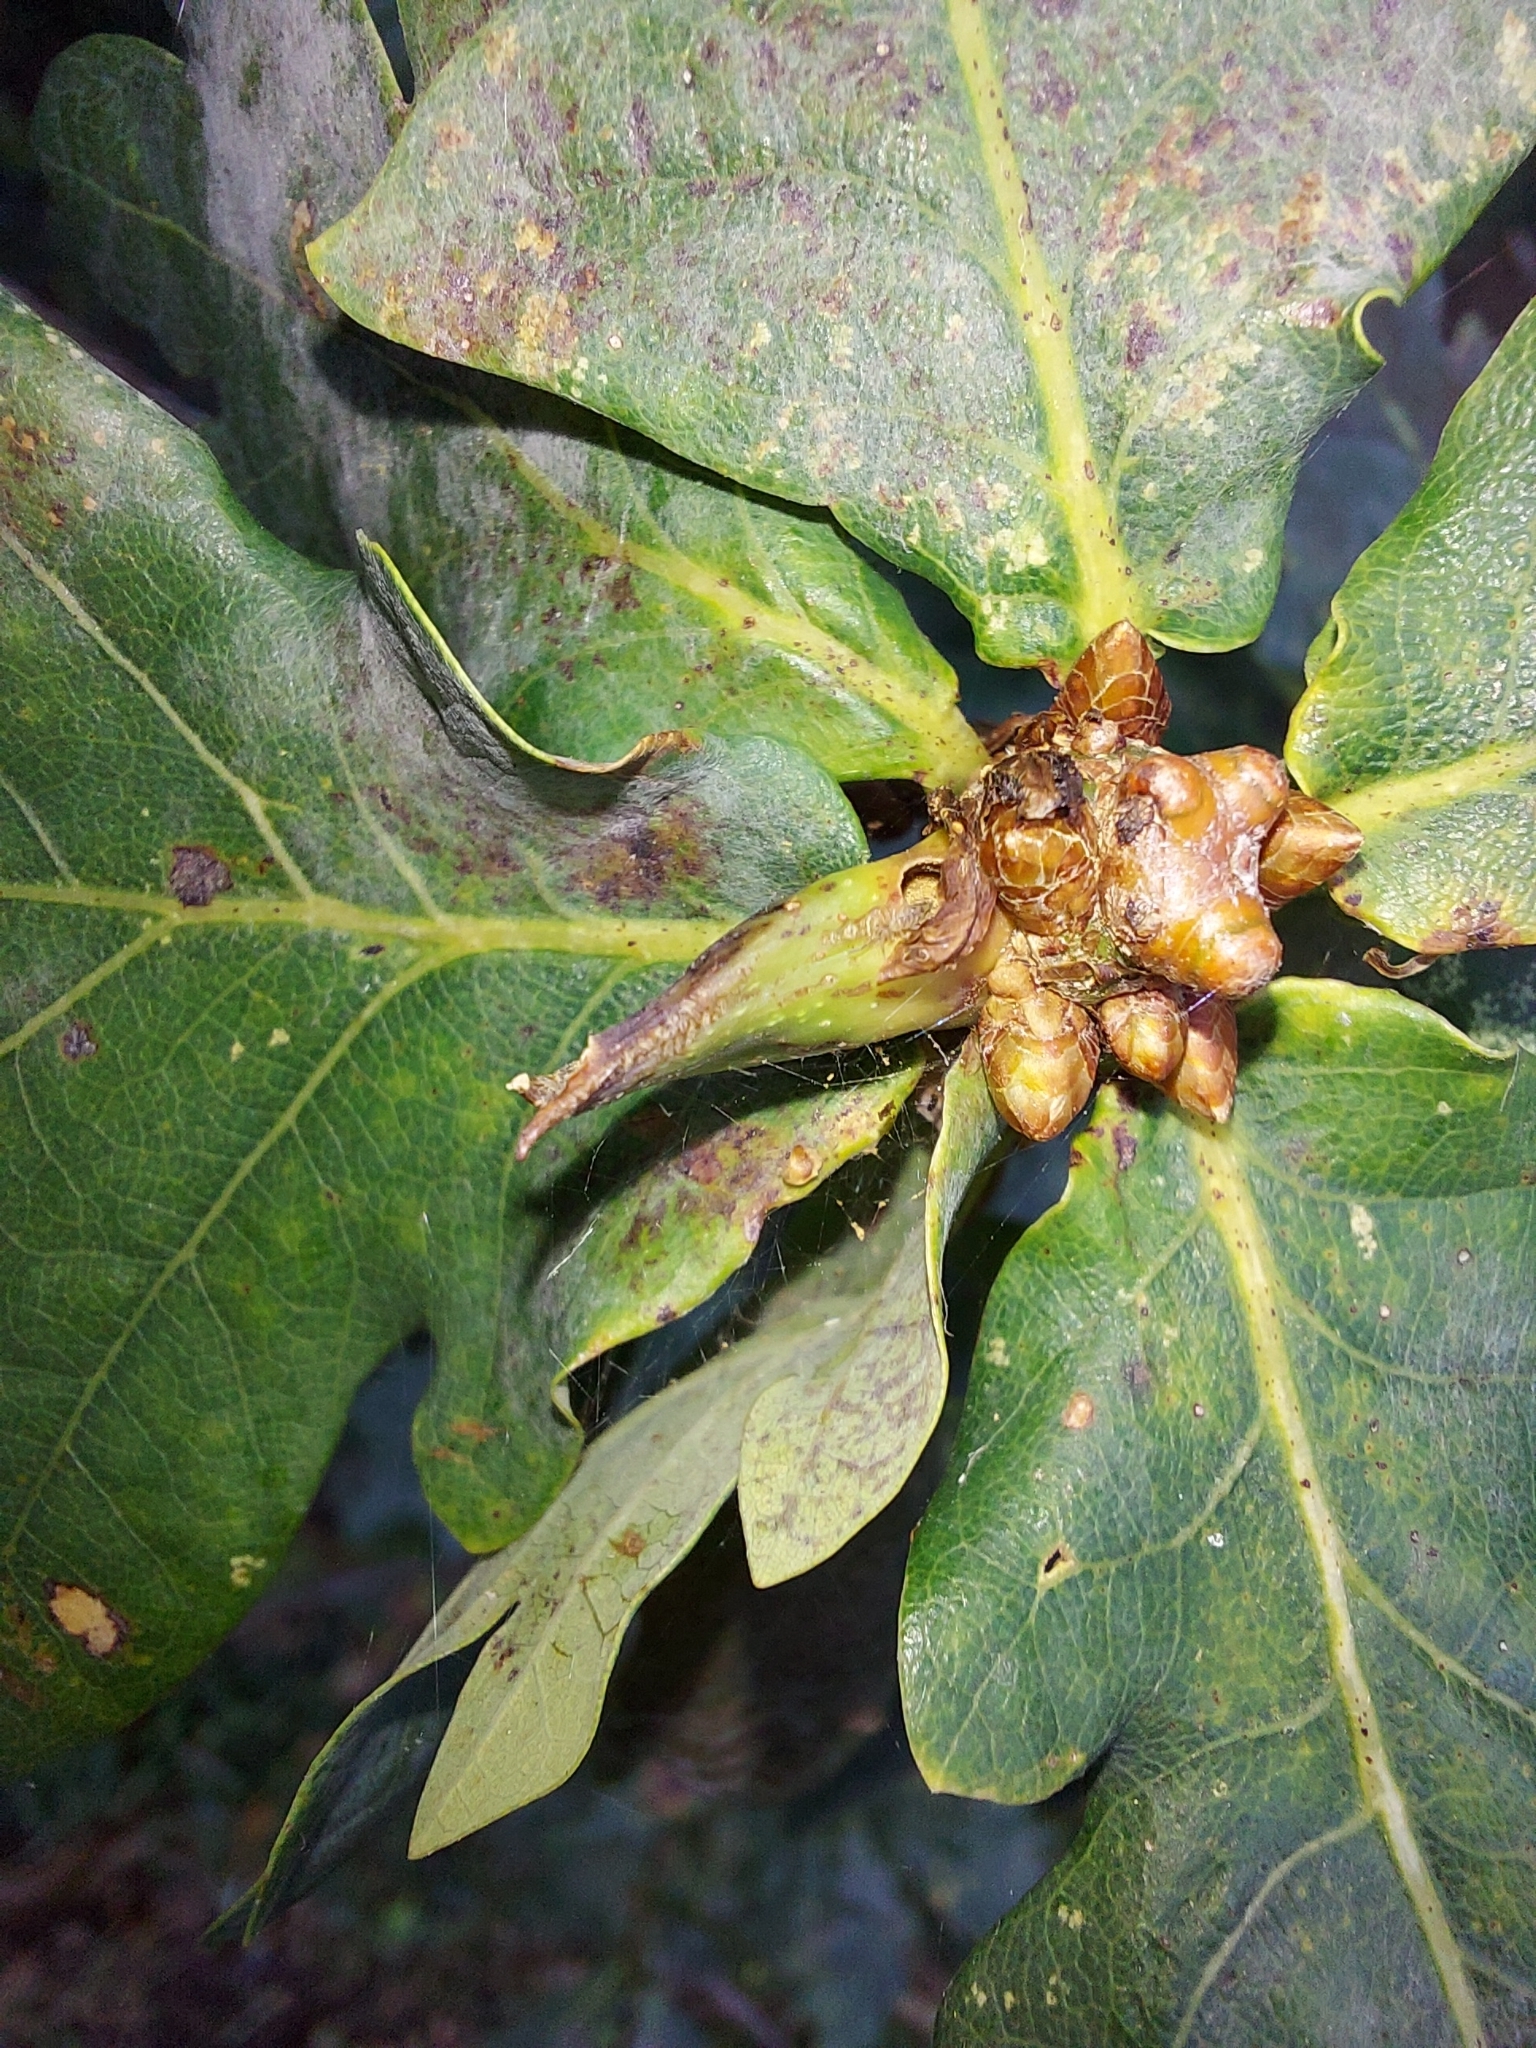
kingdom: Animalia
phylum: Arthropoda
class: Insecta
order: Hymenoptera
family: Cynipidae
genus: Andricus
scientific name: Andricus aries
